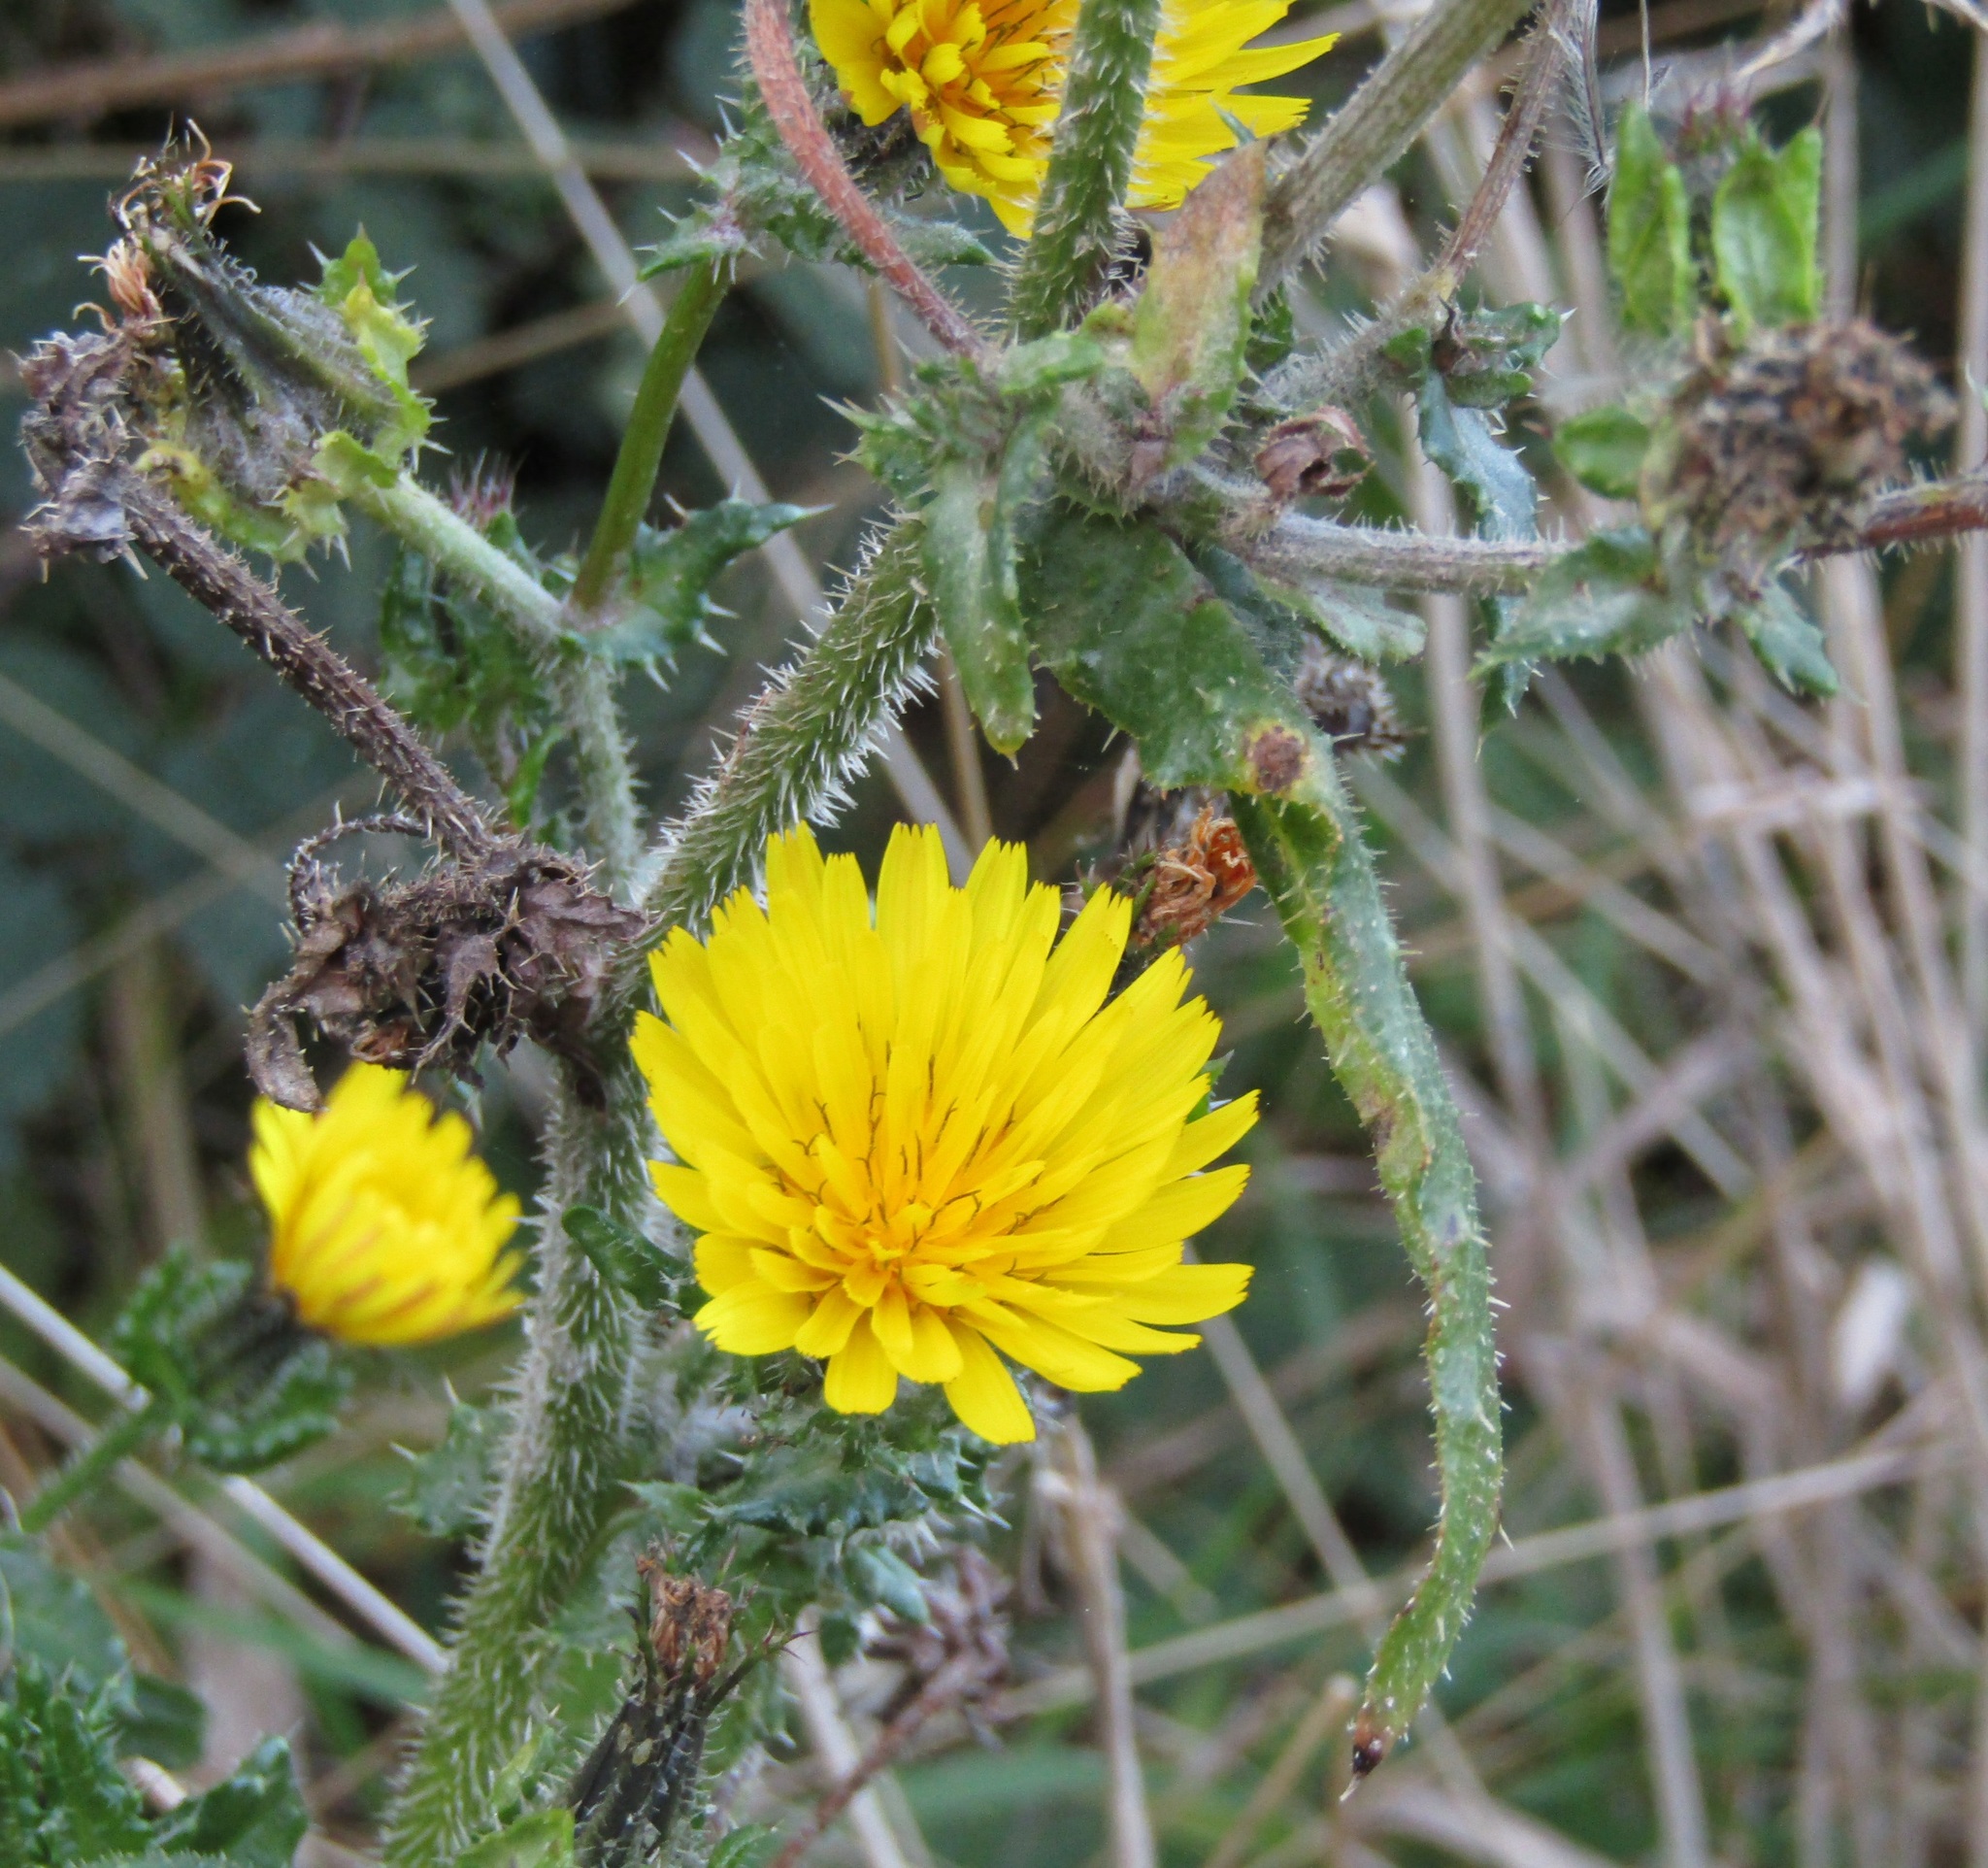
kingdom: Plantae
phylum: Tracheophyta
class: Magnoliopsida
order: Asterales
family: Asteraceae
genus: Helminthotheca
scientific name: Helminthotheca echioides
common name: Ox-tongue
